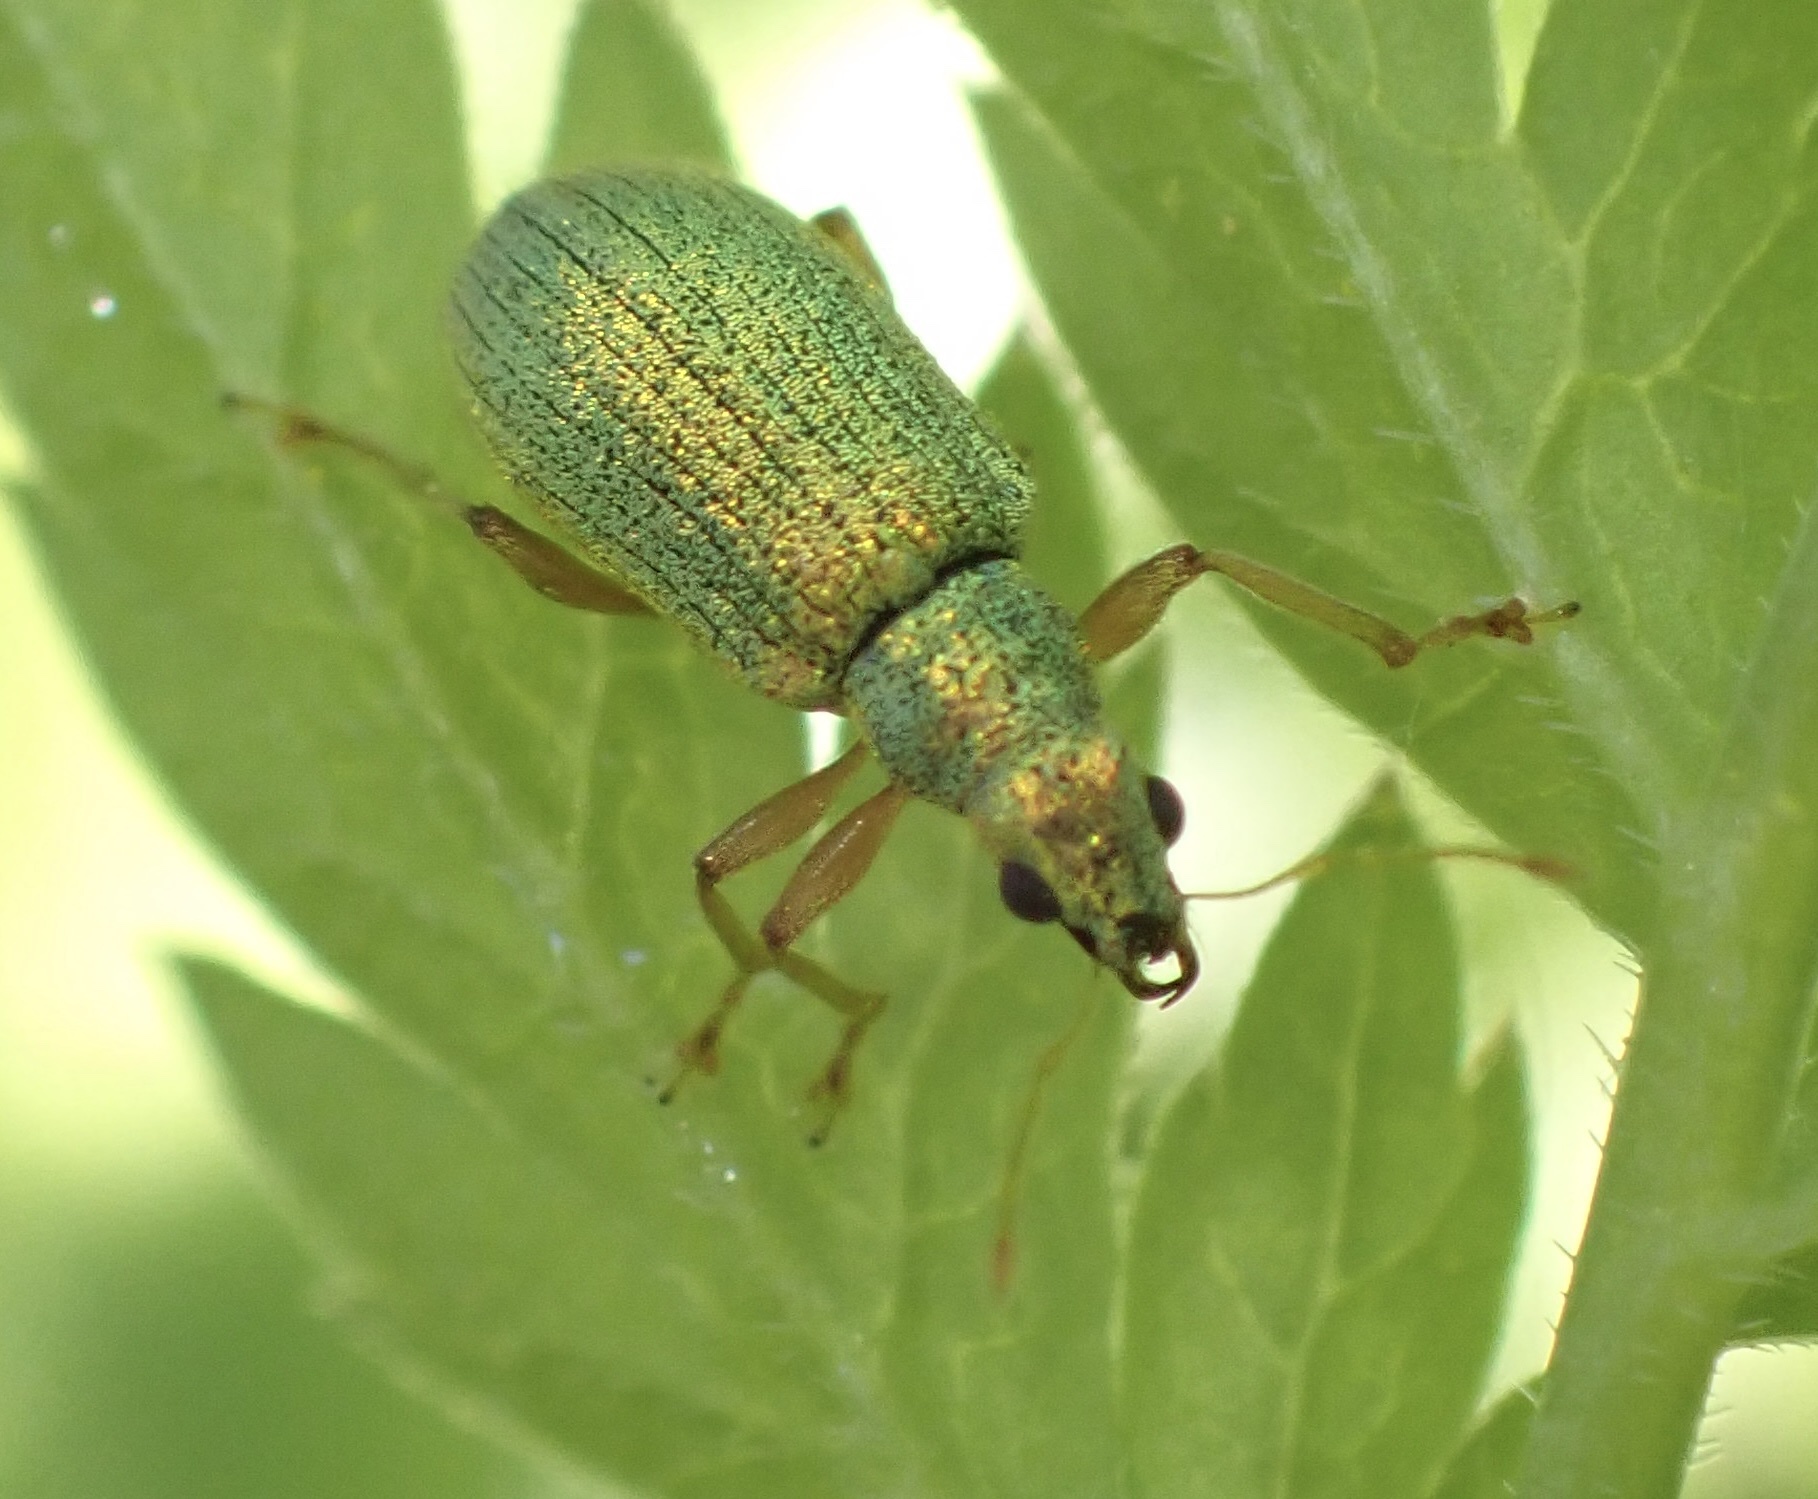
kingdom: Animalia
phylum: Arthropoda
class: Insecta
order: Coleoptera
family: Curculionidae
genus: Polydrusus
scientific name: Polydrusus pterygomalis
